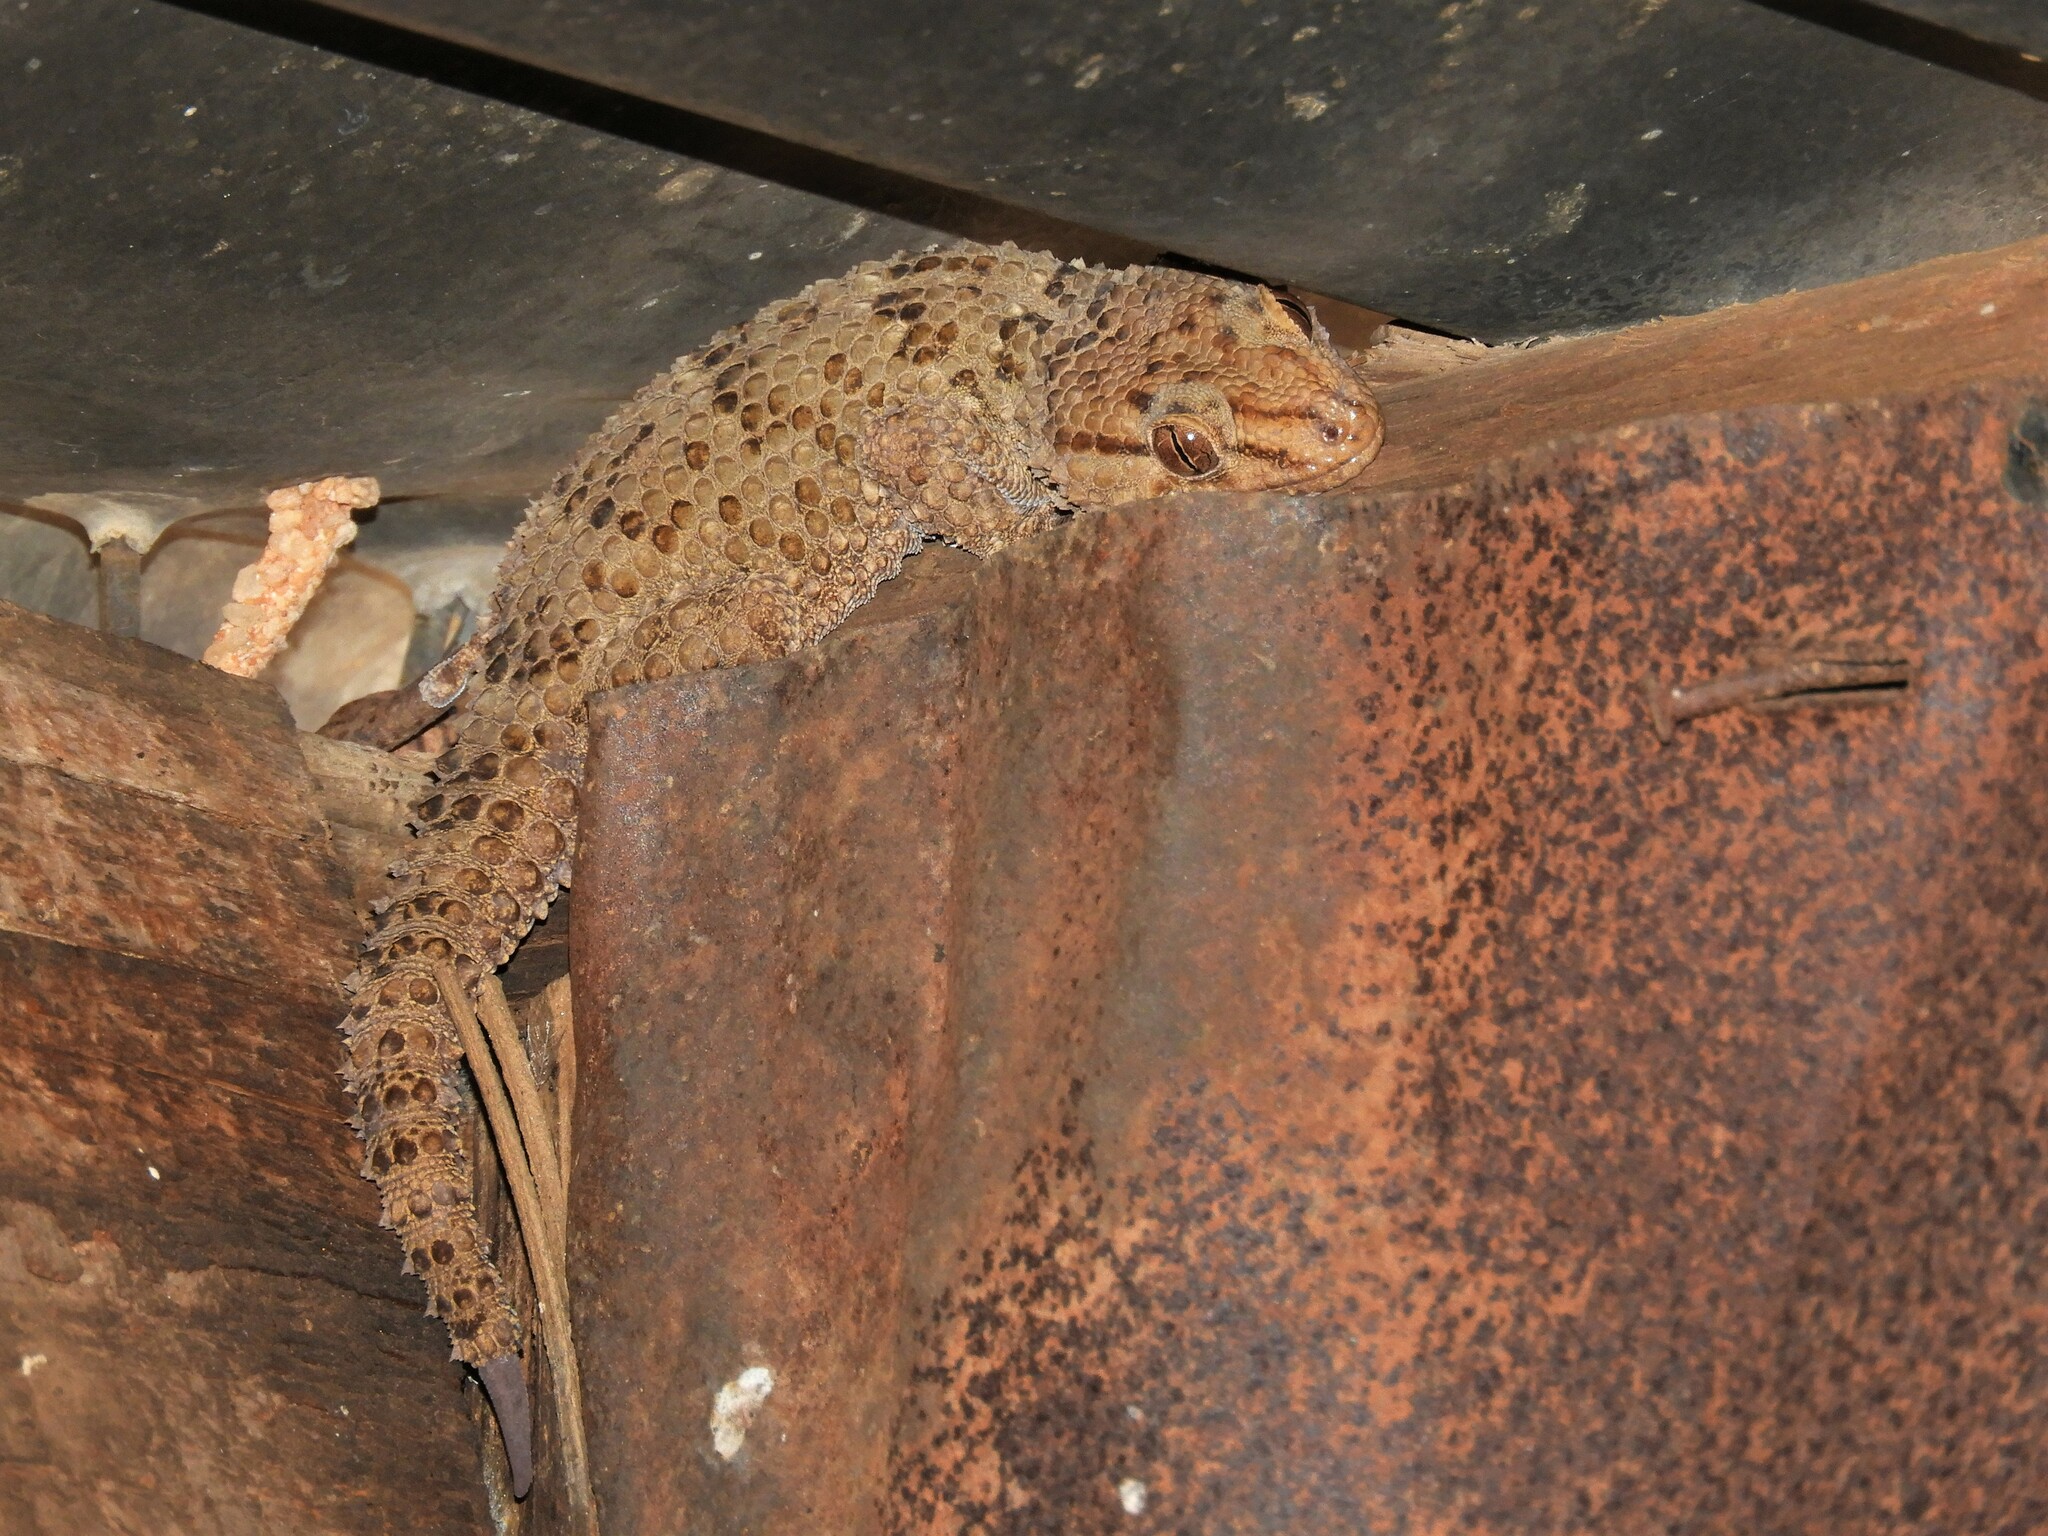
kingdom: Animalia
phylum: Chordata
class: Squamata
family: Gekkonidae
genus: Chondrodactylus
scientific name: Chondrodactylus bibronii
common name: Bibron's gecko
